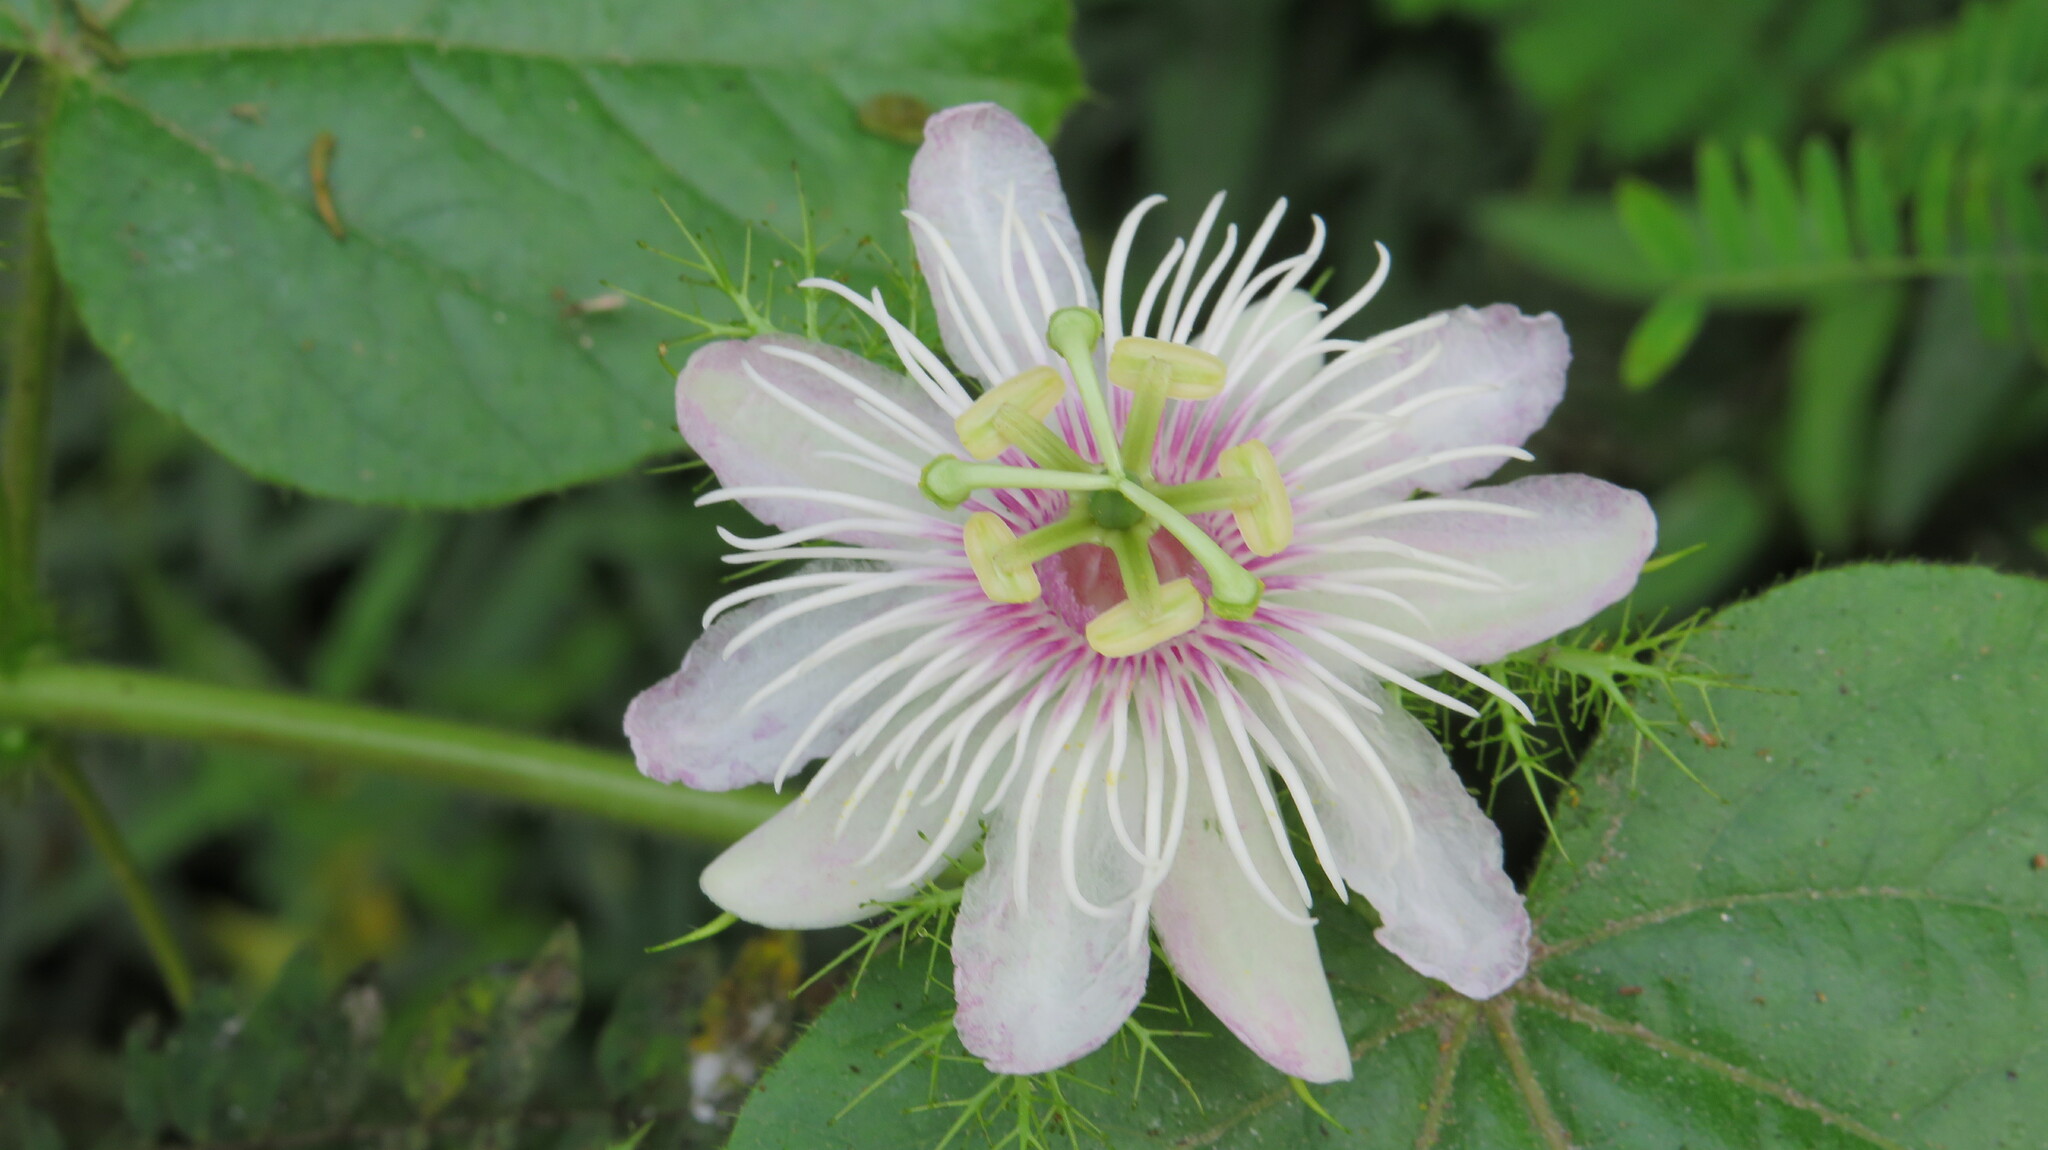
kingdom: Plantae
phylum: Tracheophyta
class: Magnoliopsida
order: Malpighiales
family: Passifloraceae
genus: Passiflora
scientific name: Passiflora vesicaria
